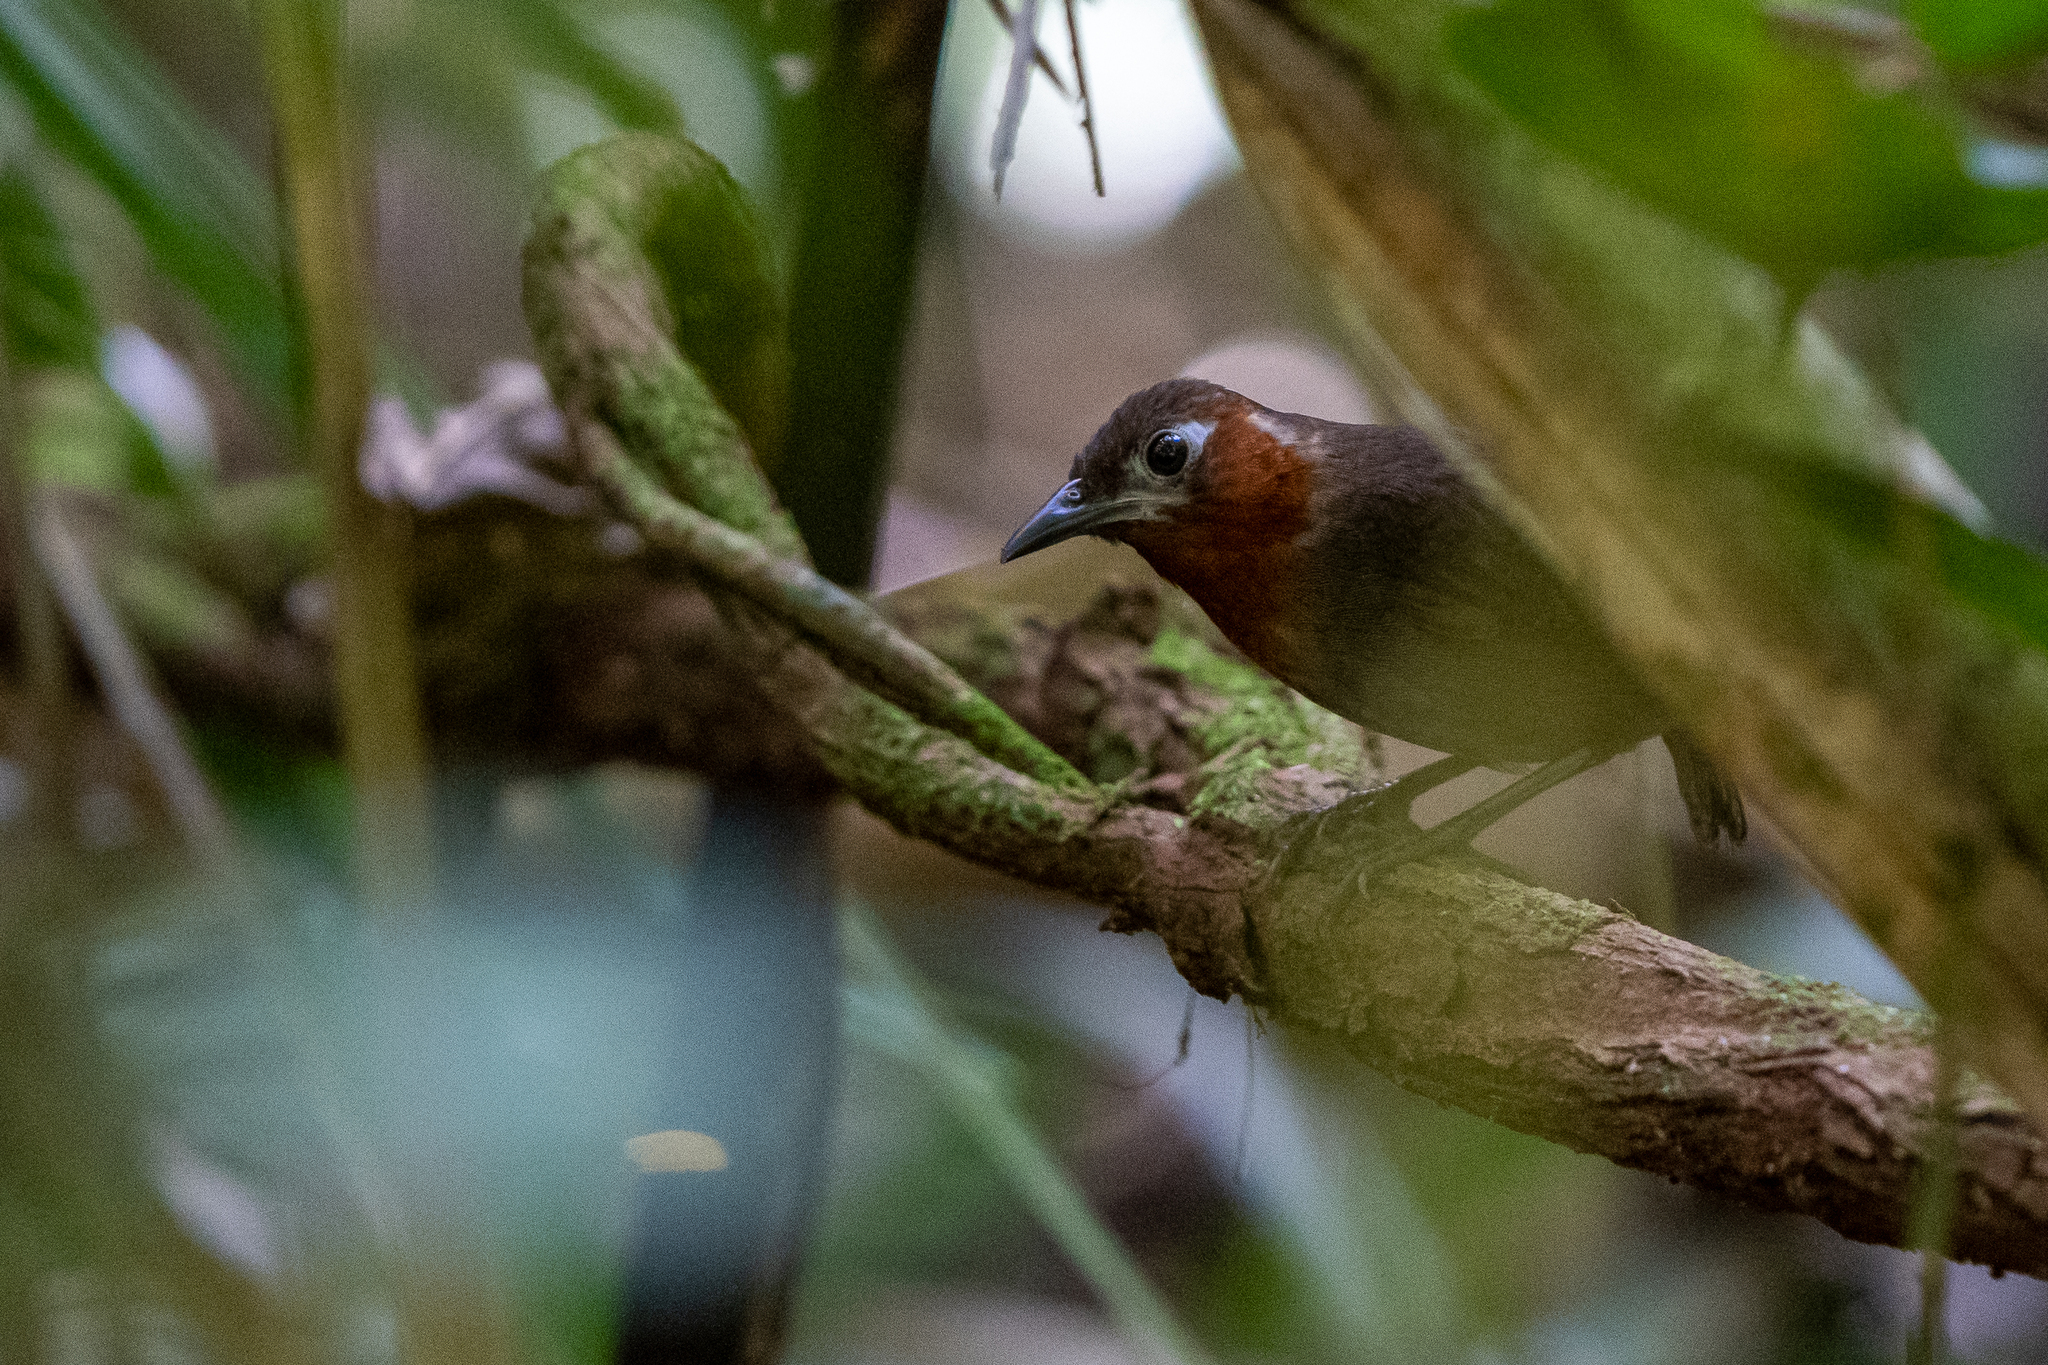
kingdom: Animalia
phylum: Chordata
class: Aves
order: Passeriformes
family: Troglodytidae
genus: Cyphorhinus
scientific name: Cyphorhinus phaeocephalus
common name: Song wren
